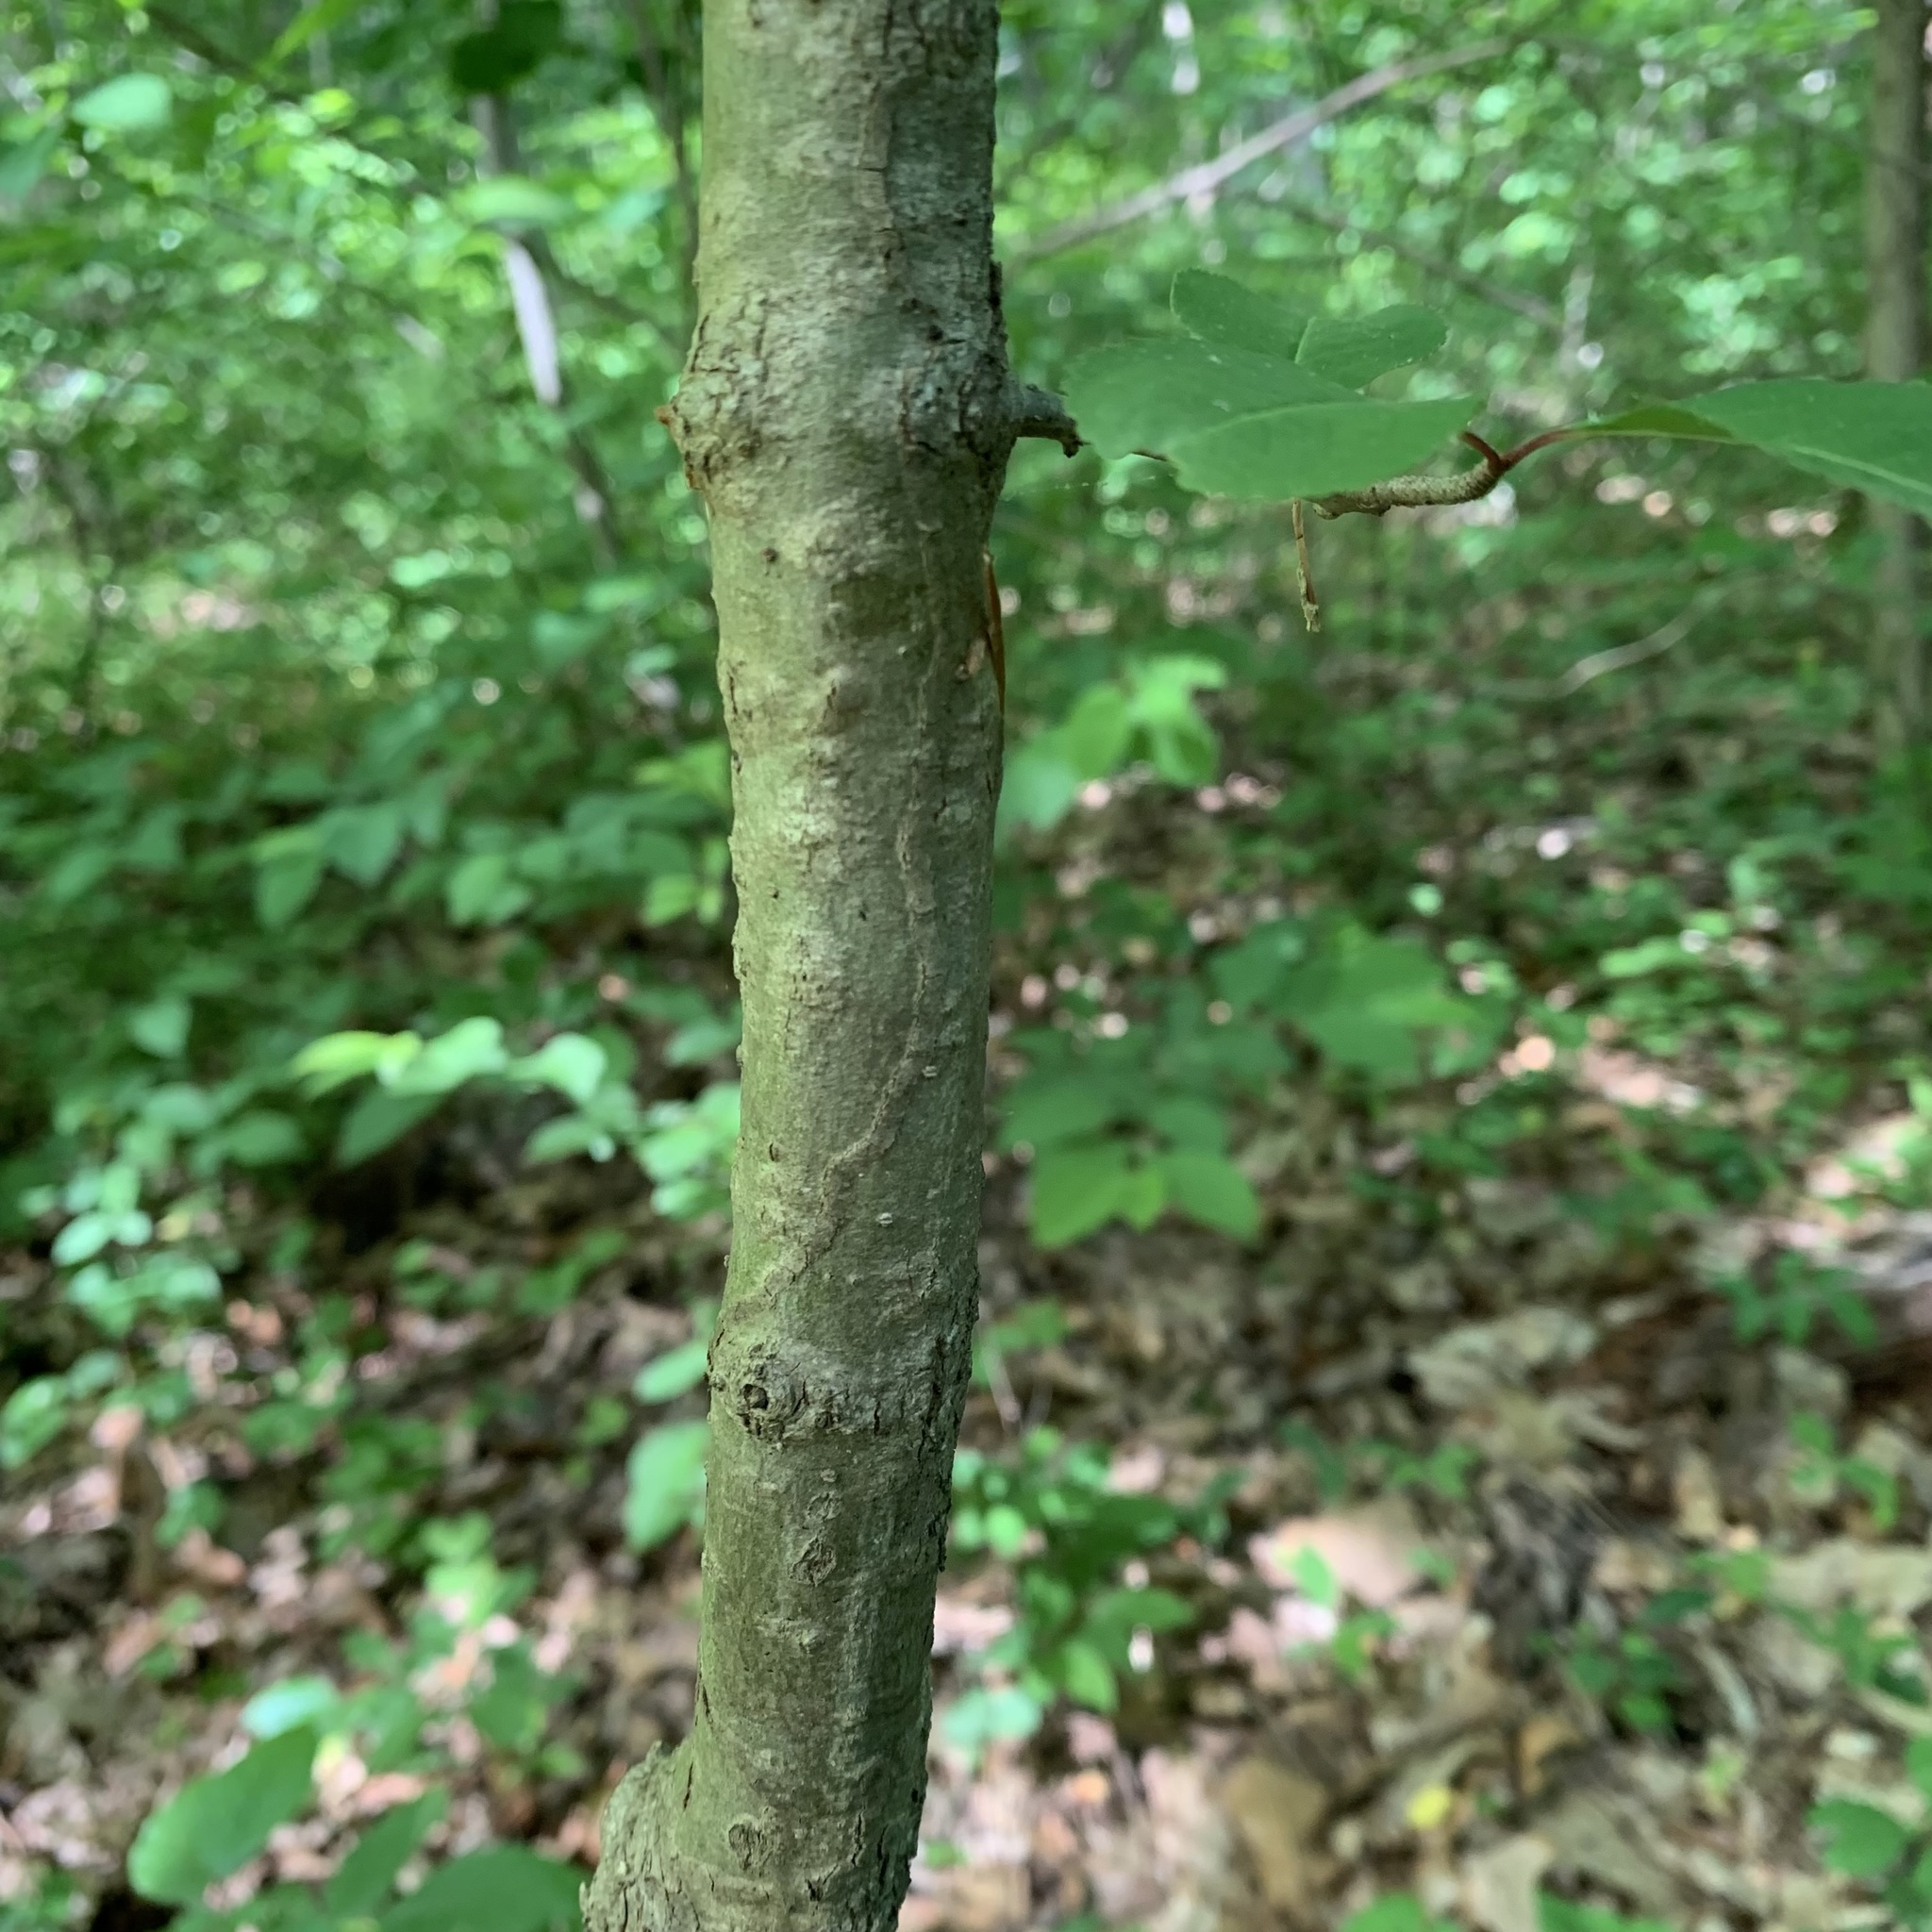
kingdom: Animalia
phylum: Arthropoda
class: Insecta
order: Lepidoptera
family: Gracillariidae
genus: Marmara
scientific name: Marmara viburnella
